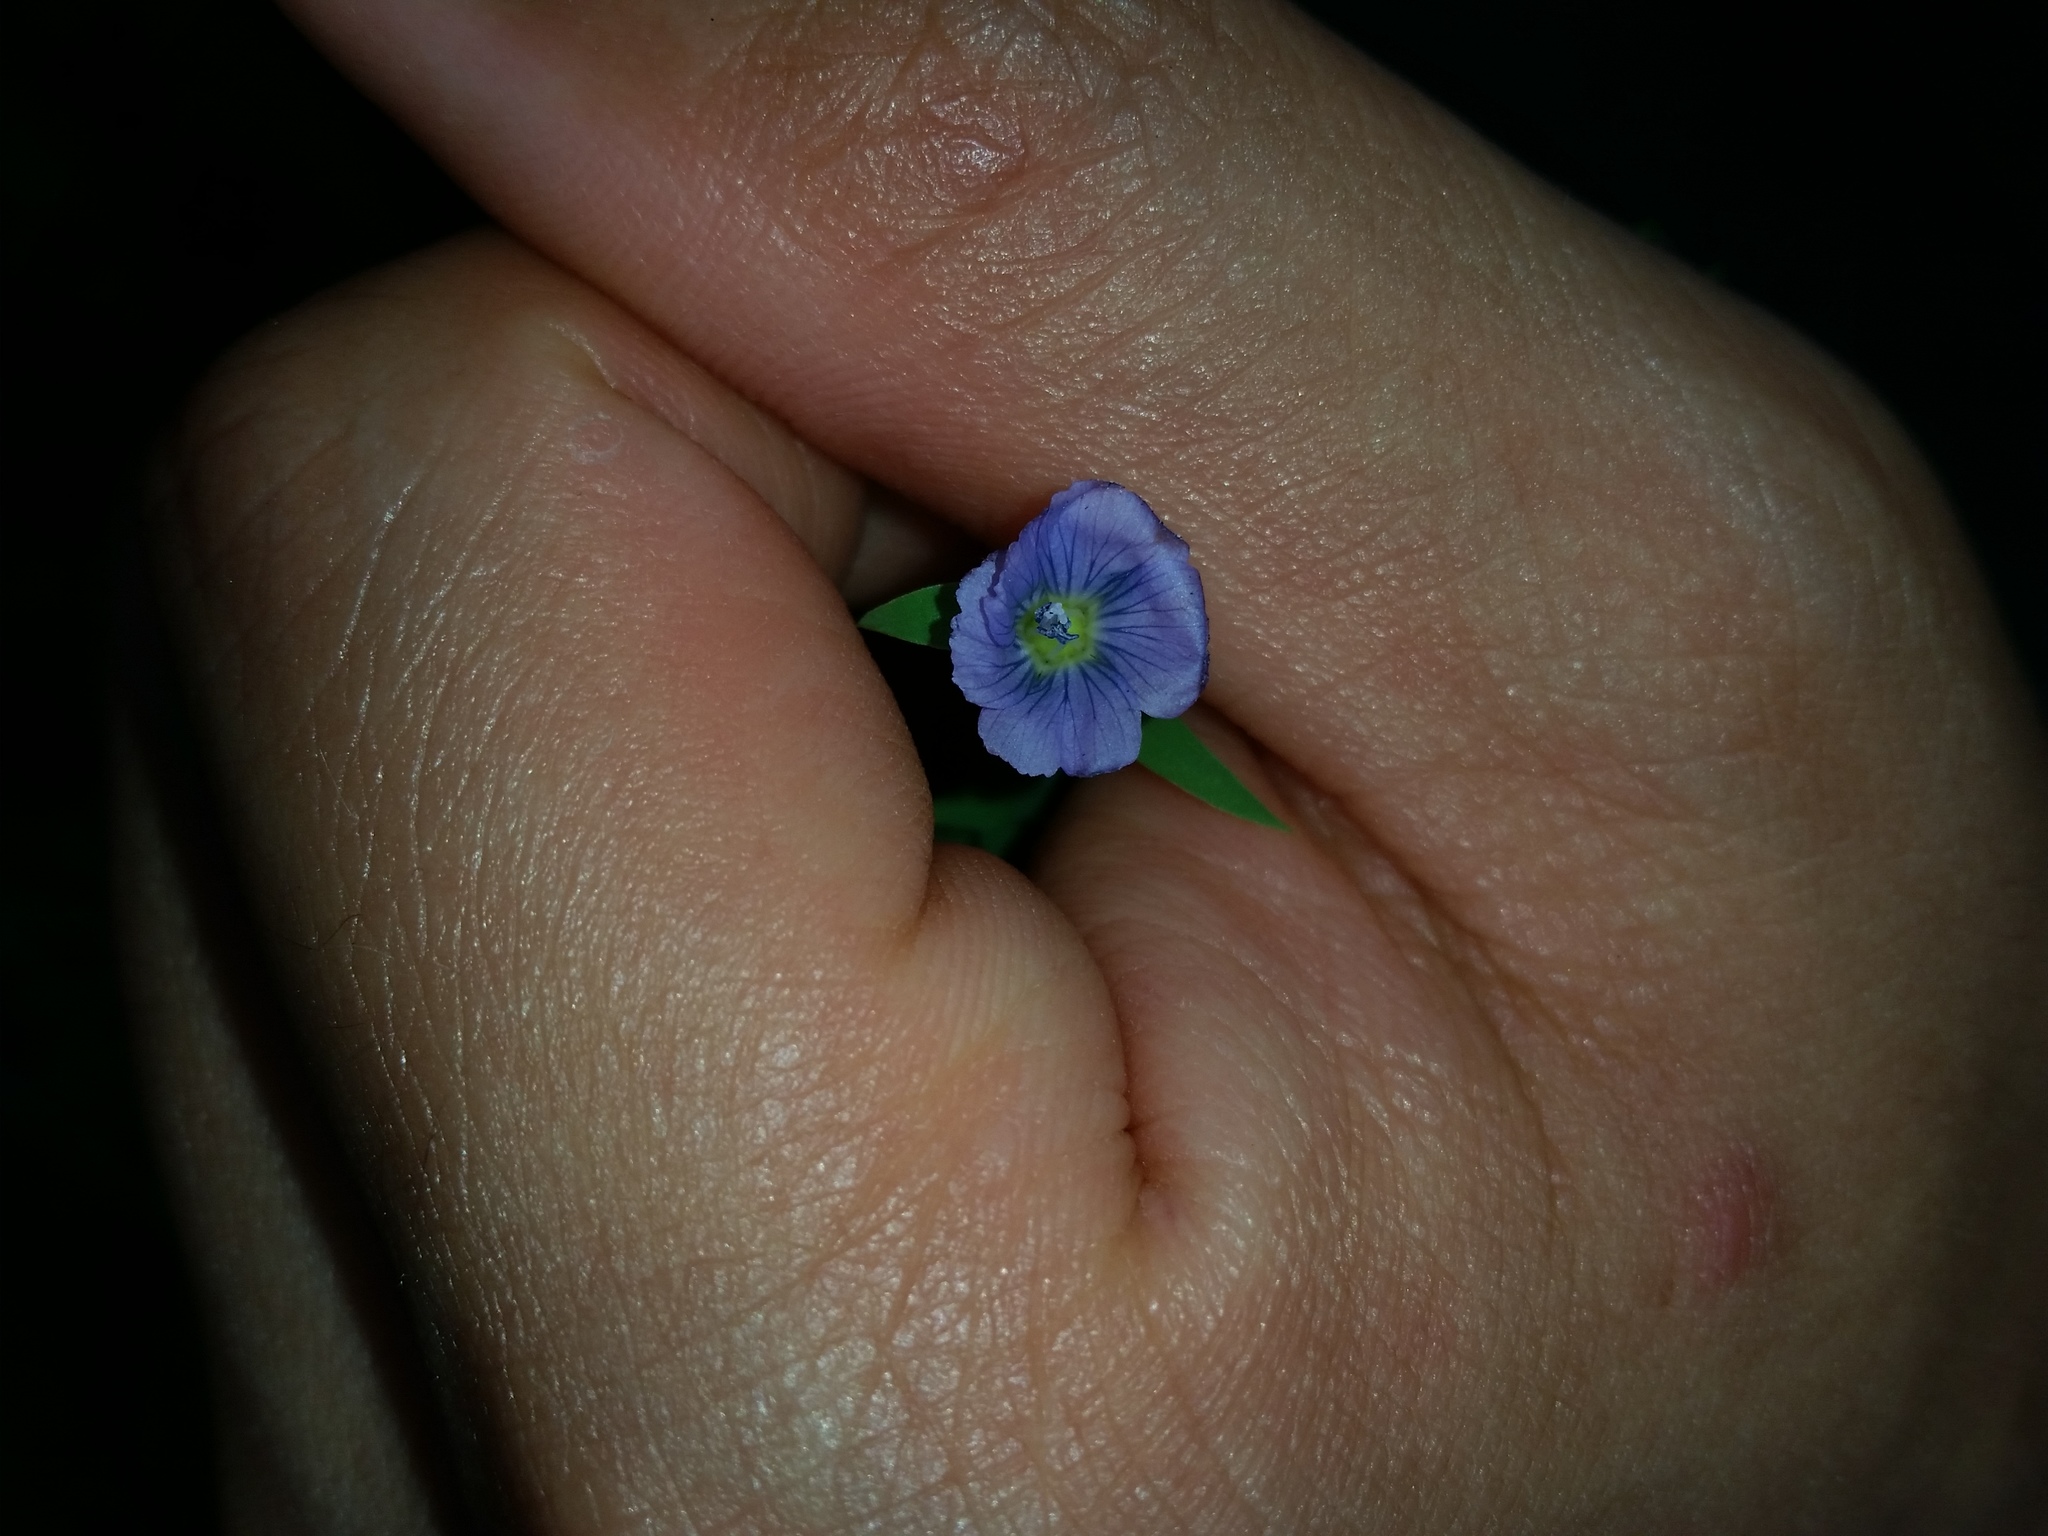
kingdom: Plantae
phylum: Tracheophyta
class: Magnoliopsida
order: Malpighiales
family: Linaceae
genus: Linum
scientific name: Linum usitatissimum
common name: Flax
